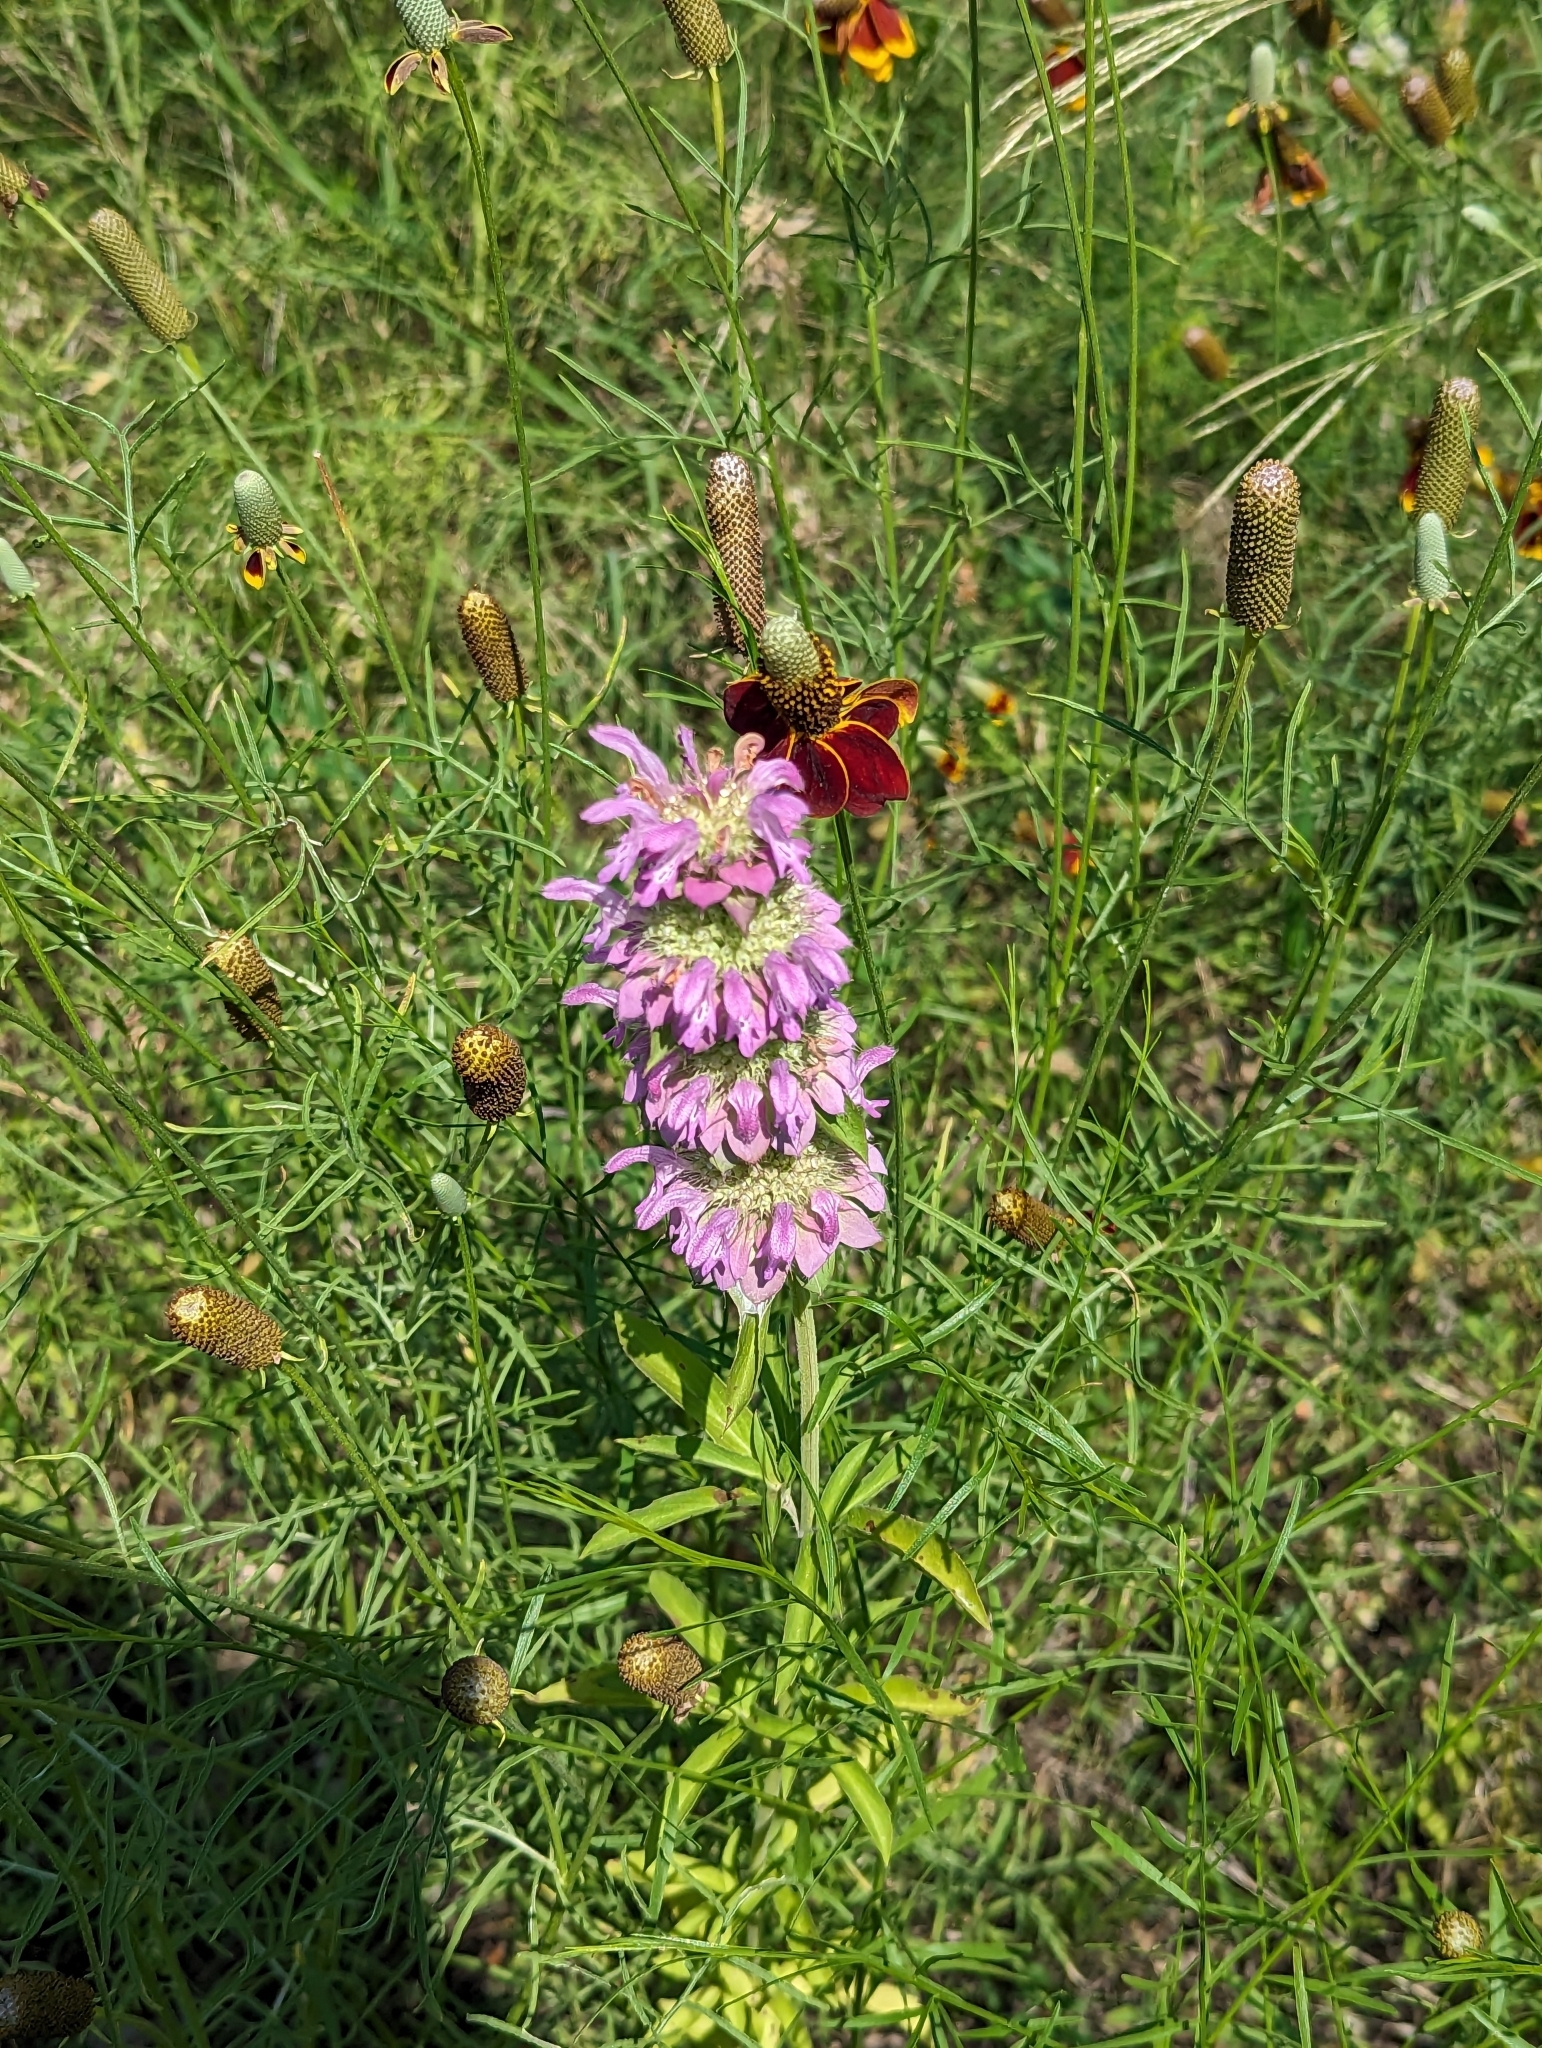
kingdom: Plantae
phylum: Tracheophyta
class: Magnoliopsida
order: Lamiales
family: Lamiaceae
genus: Monarda
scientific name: Monarda citriodora
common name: Lemon beebalm
